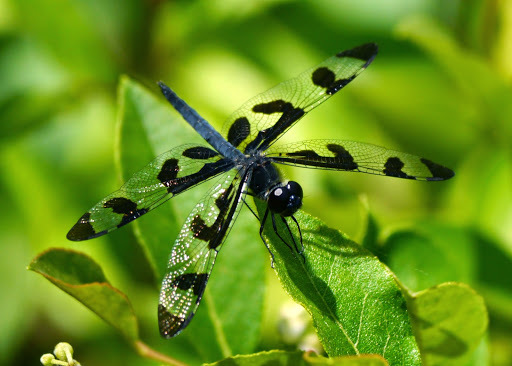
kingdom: Animalia
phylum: Arthropoda
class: Insecta
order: Odonata
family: Libellulidae
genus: Celithemis
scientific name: Celithemis fasciata
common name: Banded pennant
